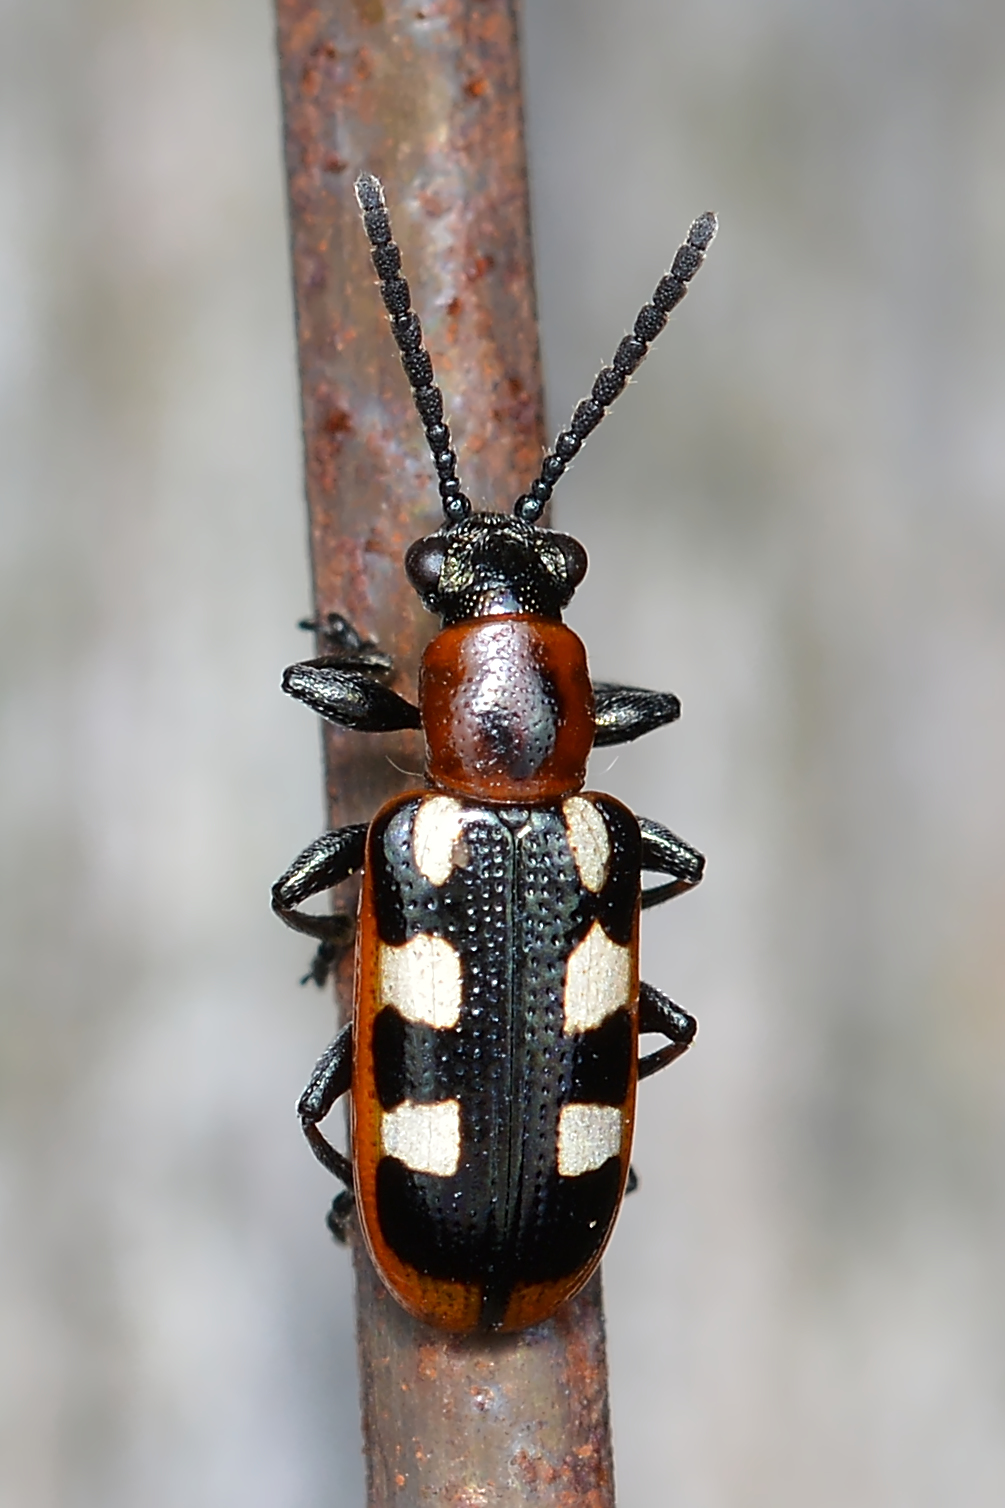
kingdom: Animalia
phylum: Arthropoda
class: Insecta
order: Coleoptera
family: Chrysomelidae
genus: Crioceris
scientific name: Crioceris asparagi
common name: Asparagus beetle
